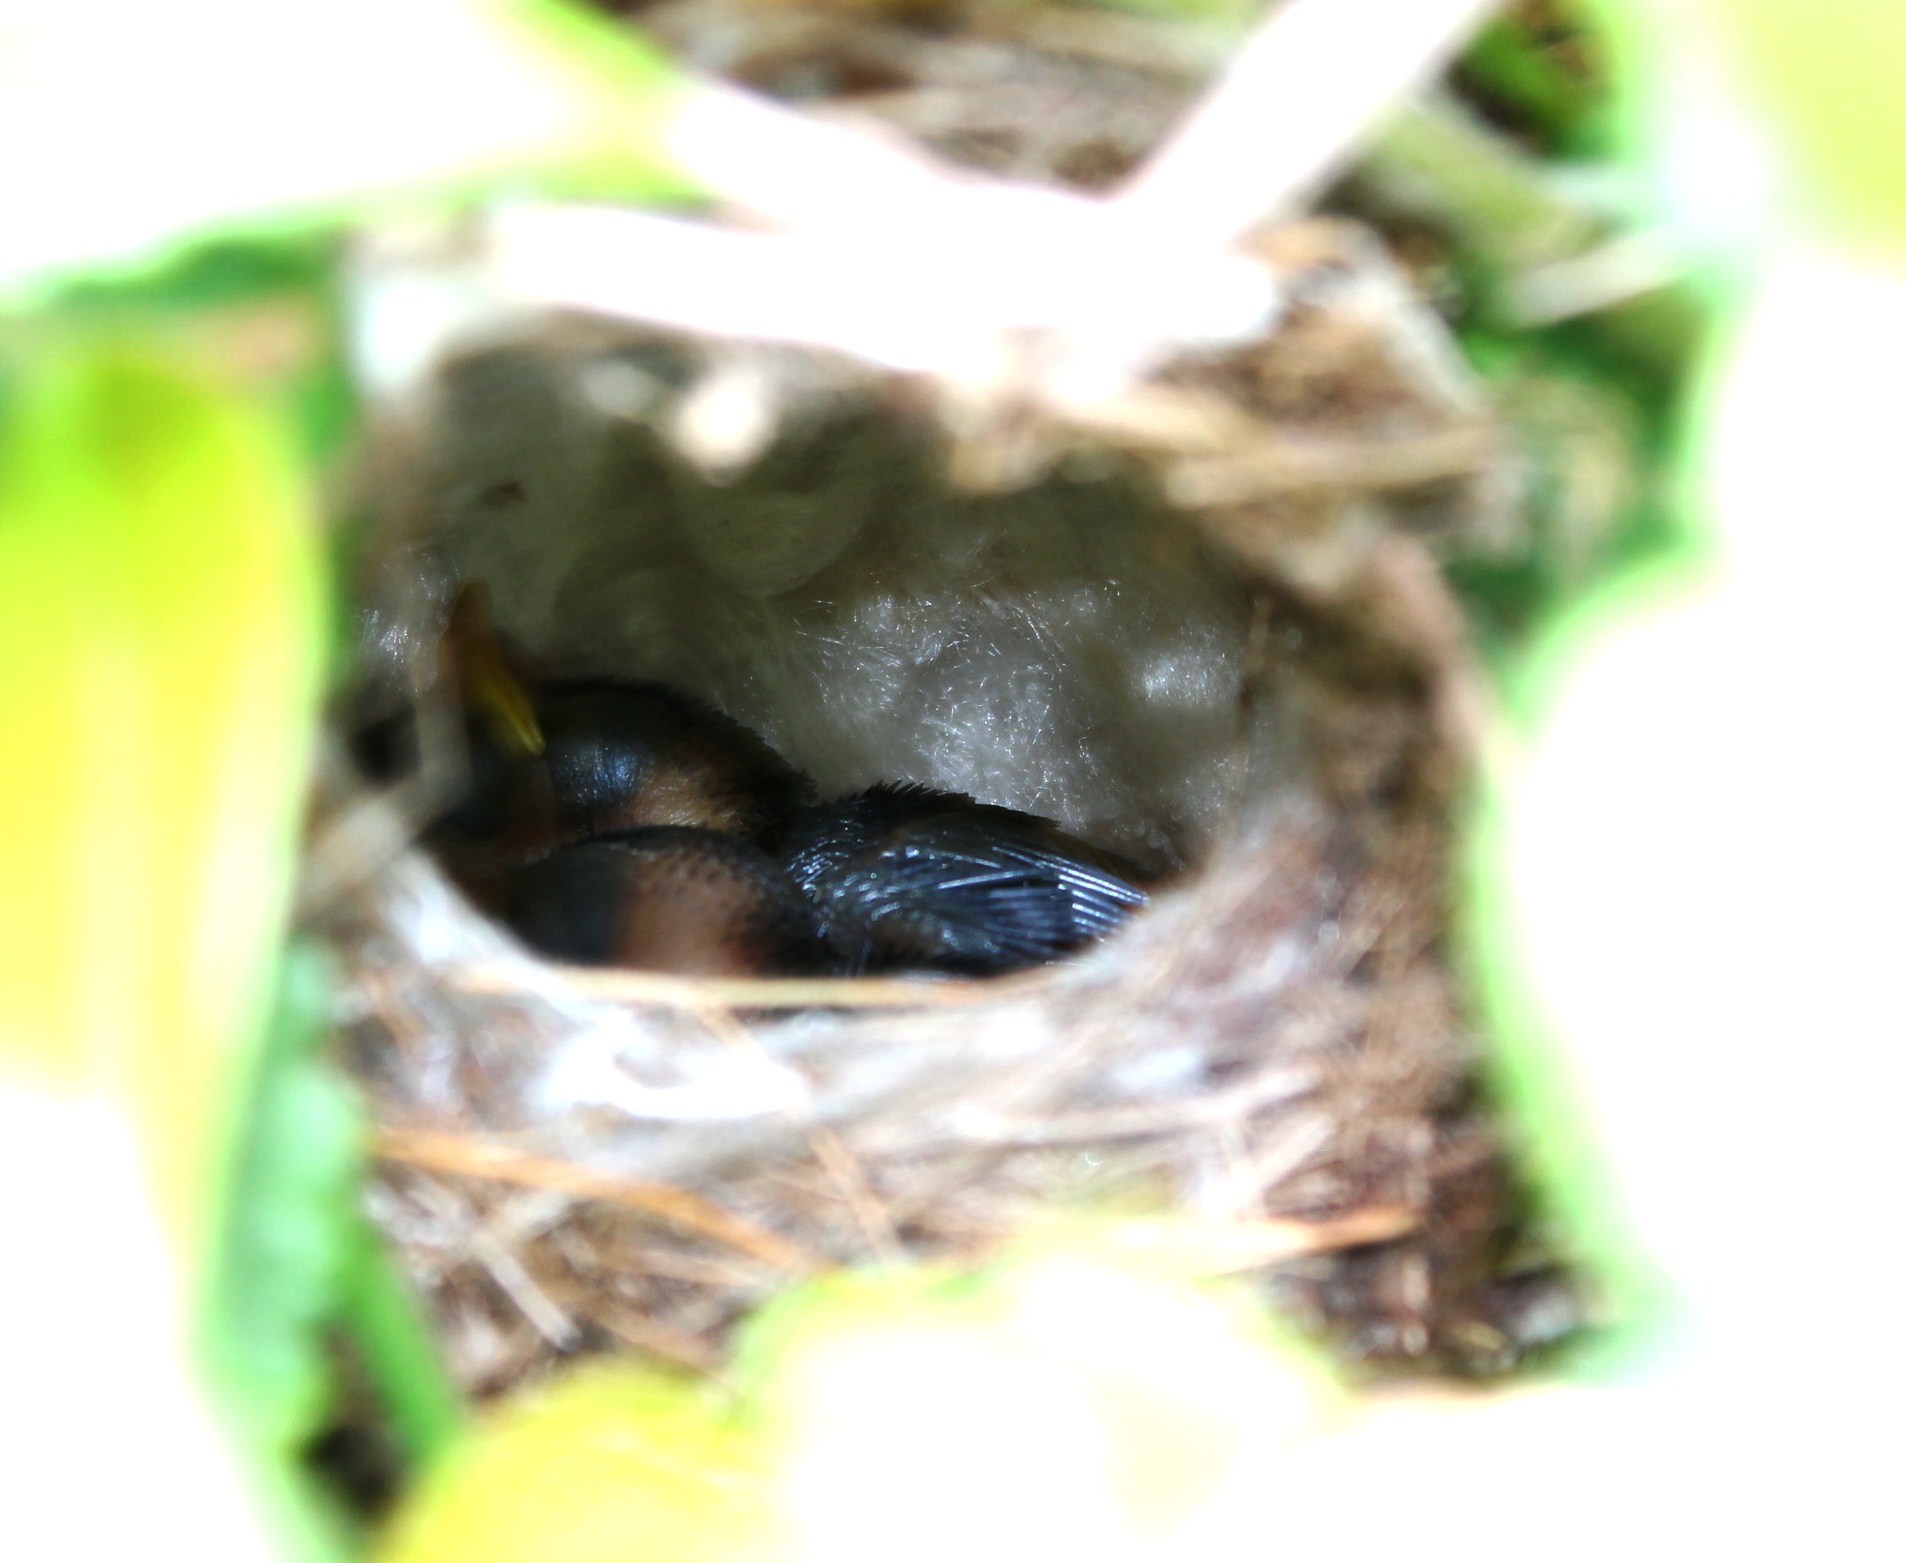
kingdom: Animalia
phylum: Chordata
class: Aves
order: Passeriformes
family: Cisticolidae
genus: Apalis
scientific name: Apalis thoracica
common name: Bar-throated apalis
